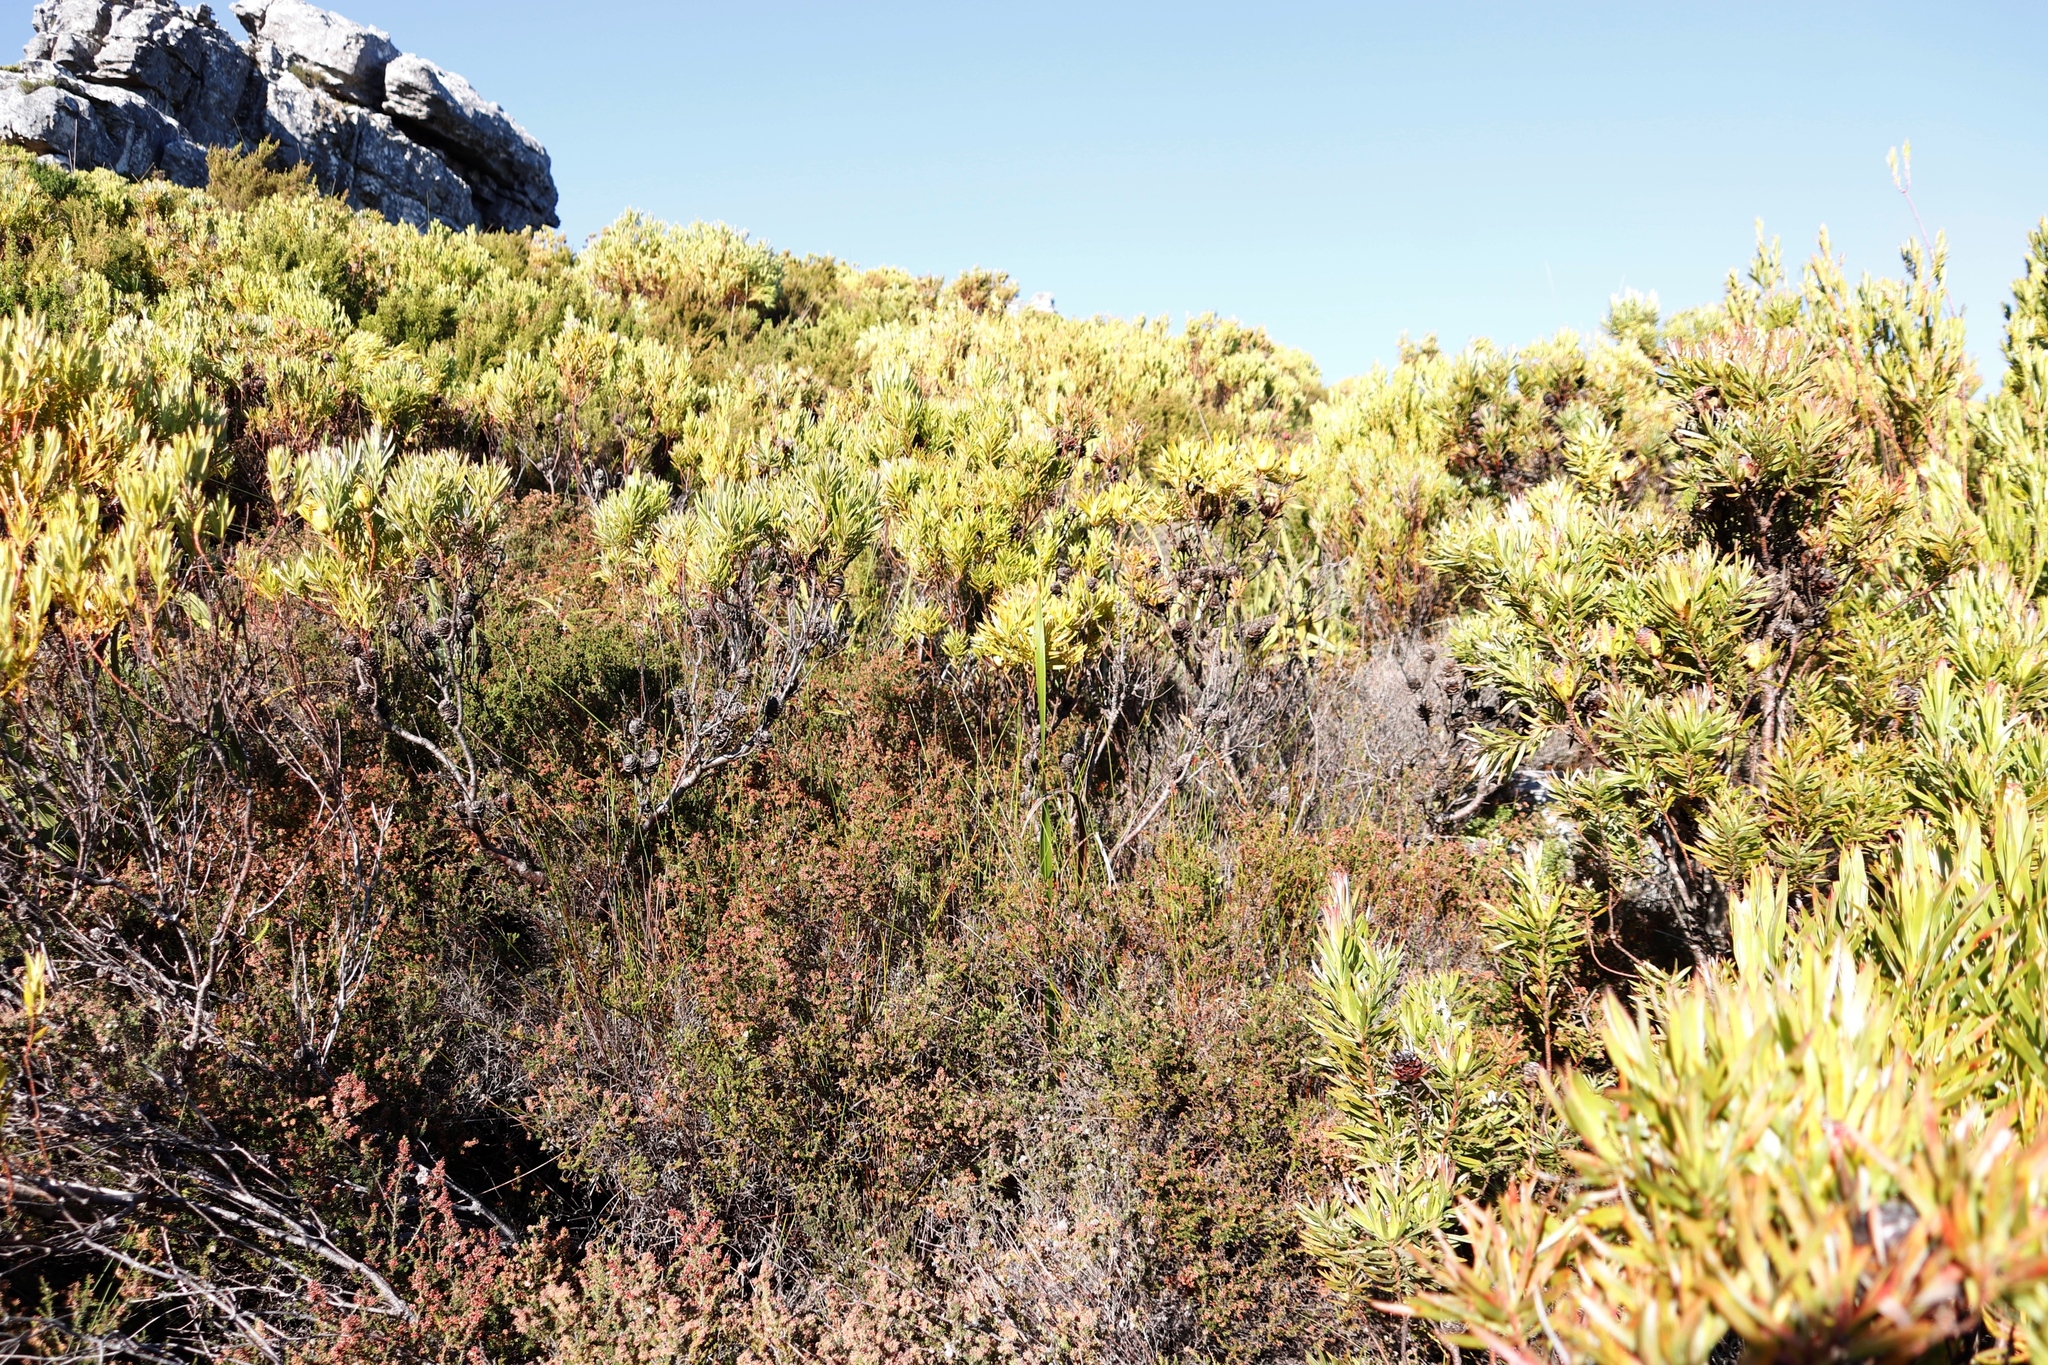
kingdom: Plantae
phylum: Tracheophyta
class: Magnoliopsida
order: Proteales
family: Proteaceae
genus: Leucadendron
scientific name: Leucadendron xanthoconus
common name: Sickle-leaf conebush
